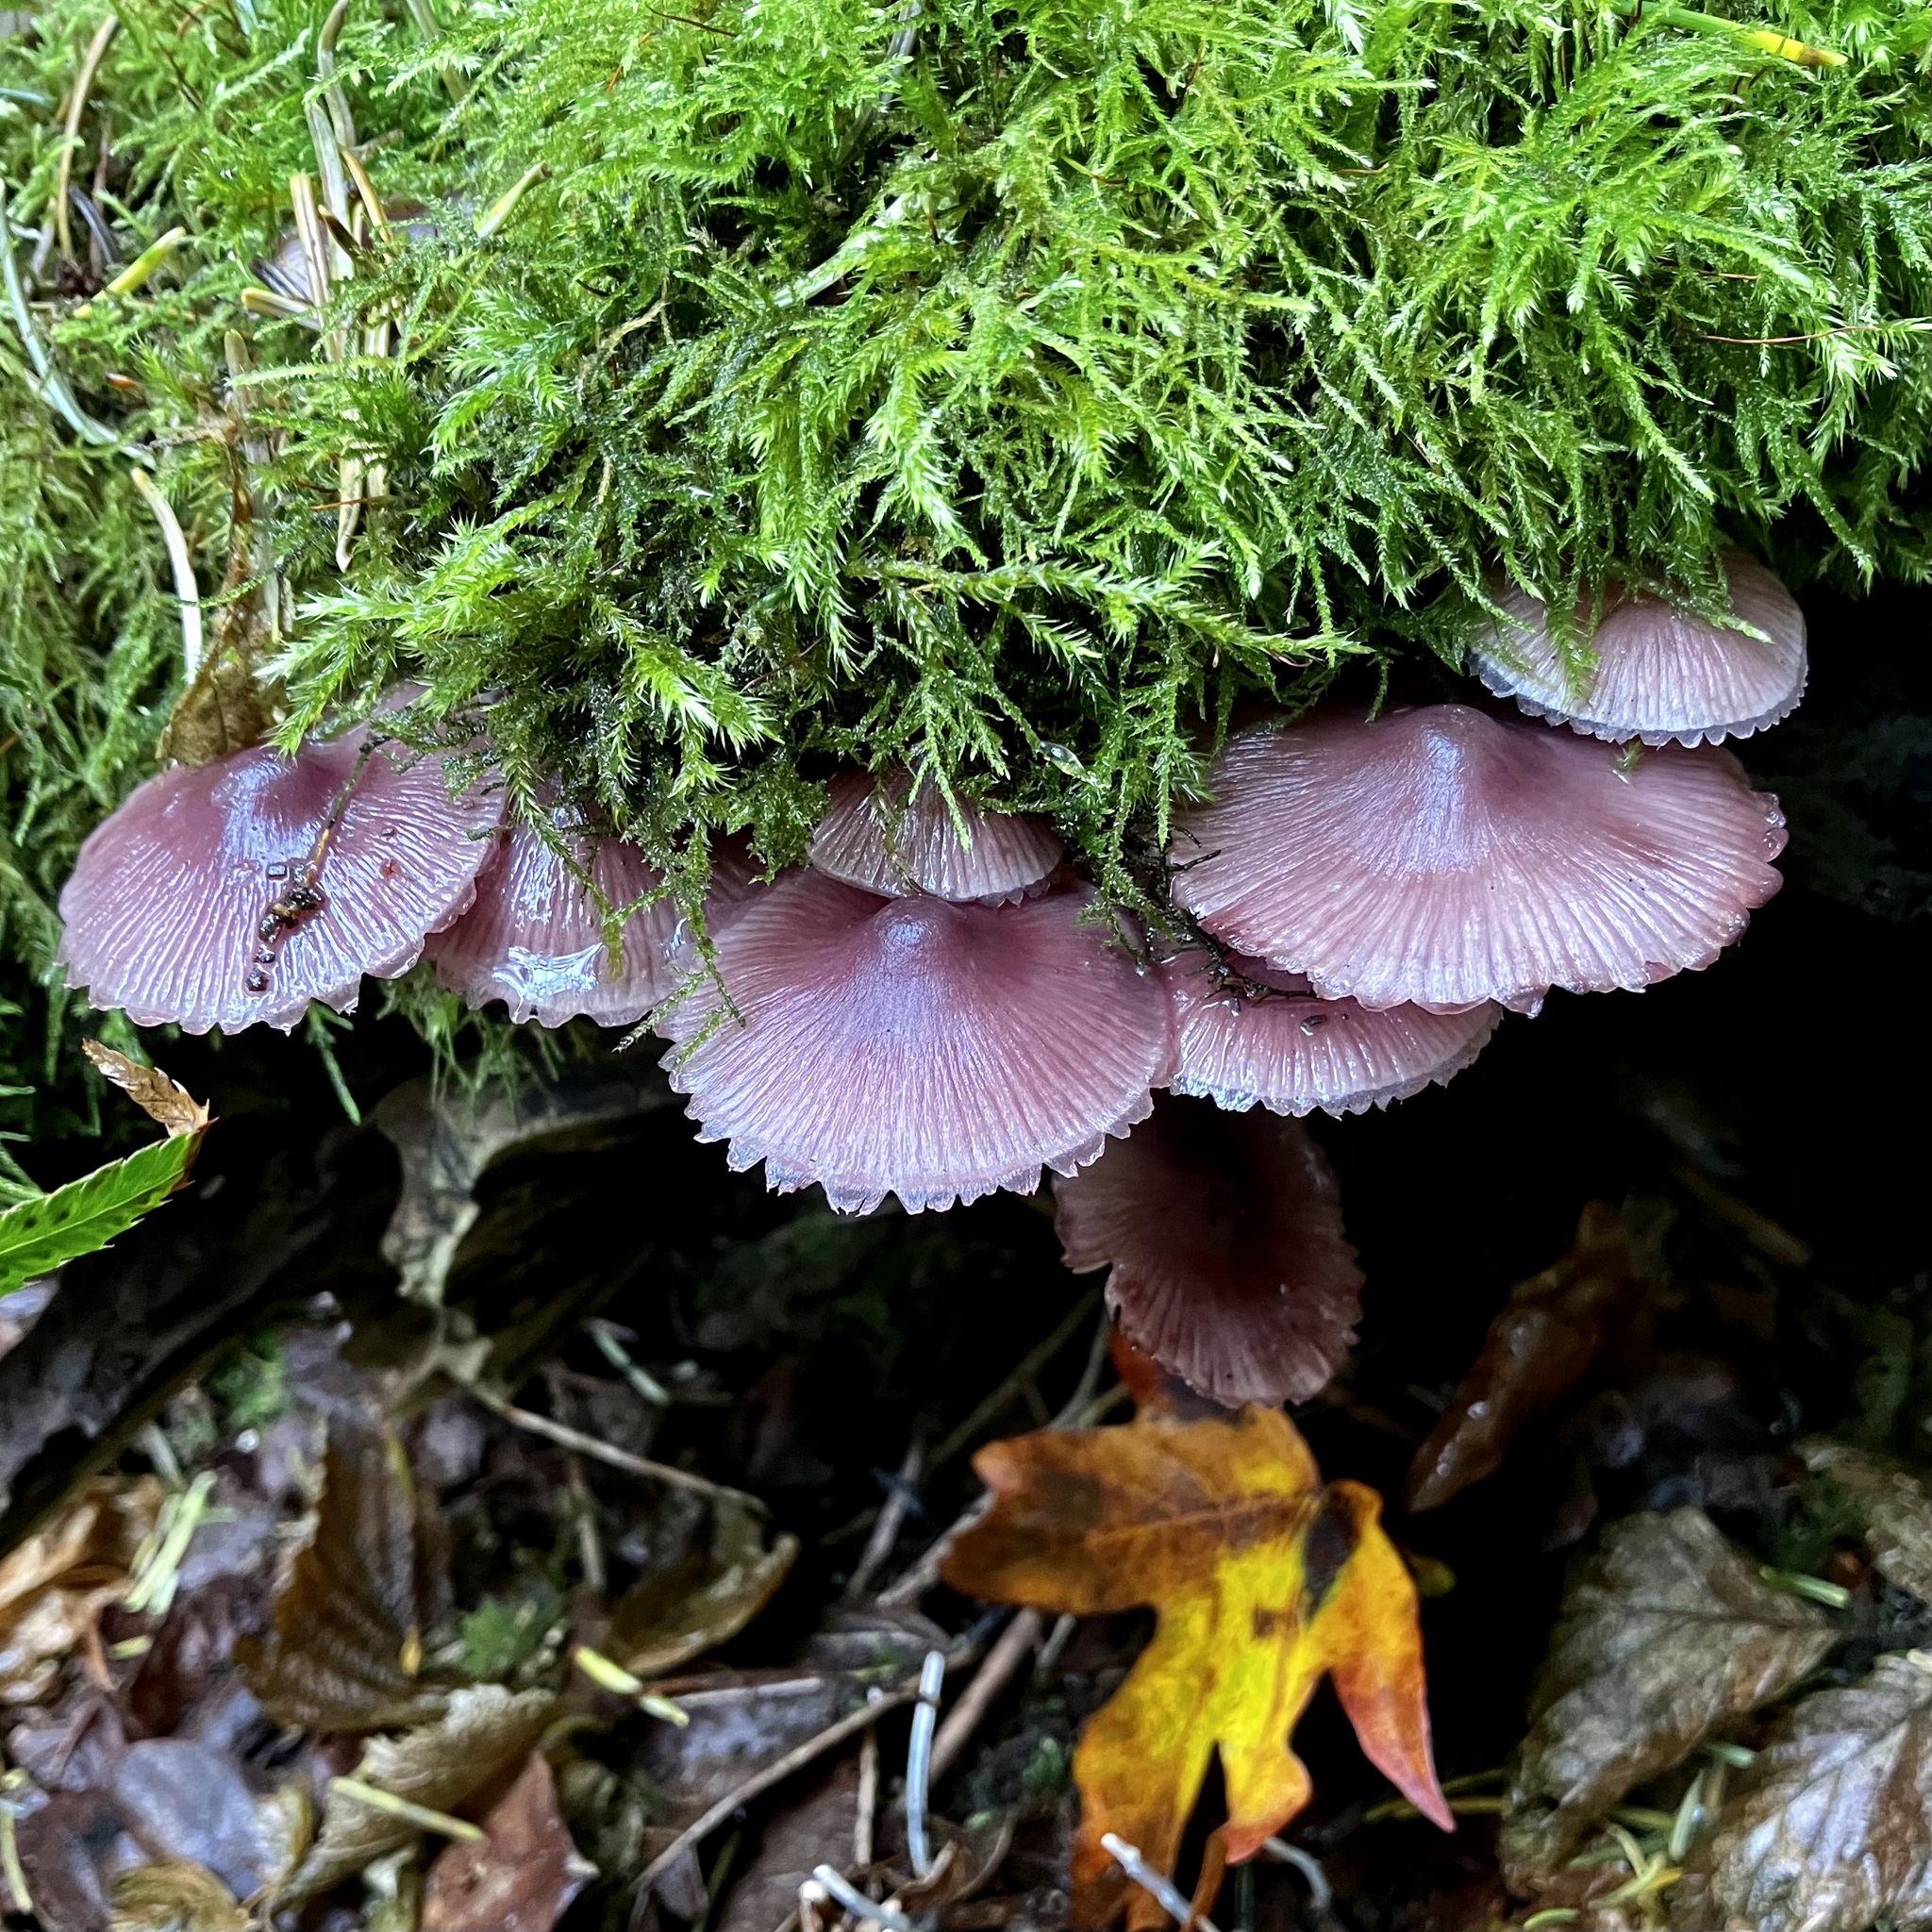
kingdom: Fungi
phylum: Basidiomycota
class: Agaricomycetes
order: Agaricales
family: Mycenaceae
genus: Mycena
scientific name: Mycena haematopus
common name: Burgundydrop bonnet
